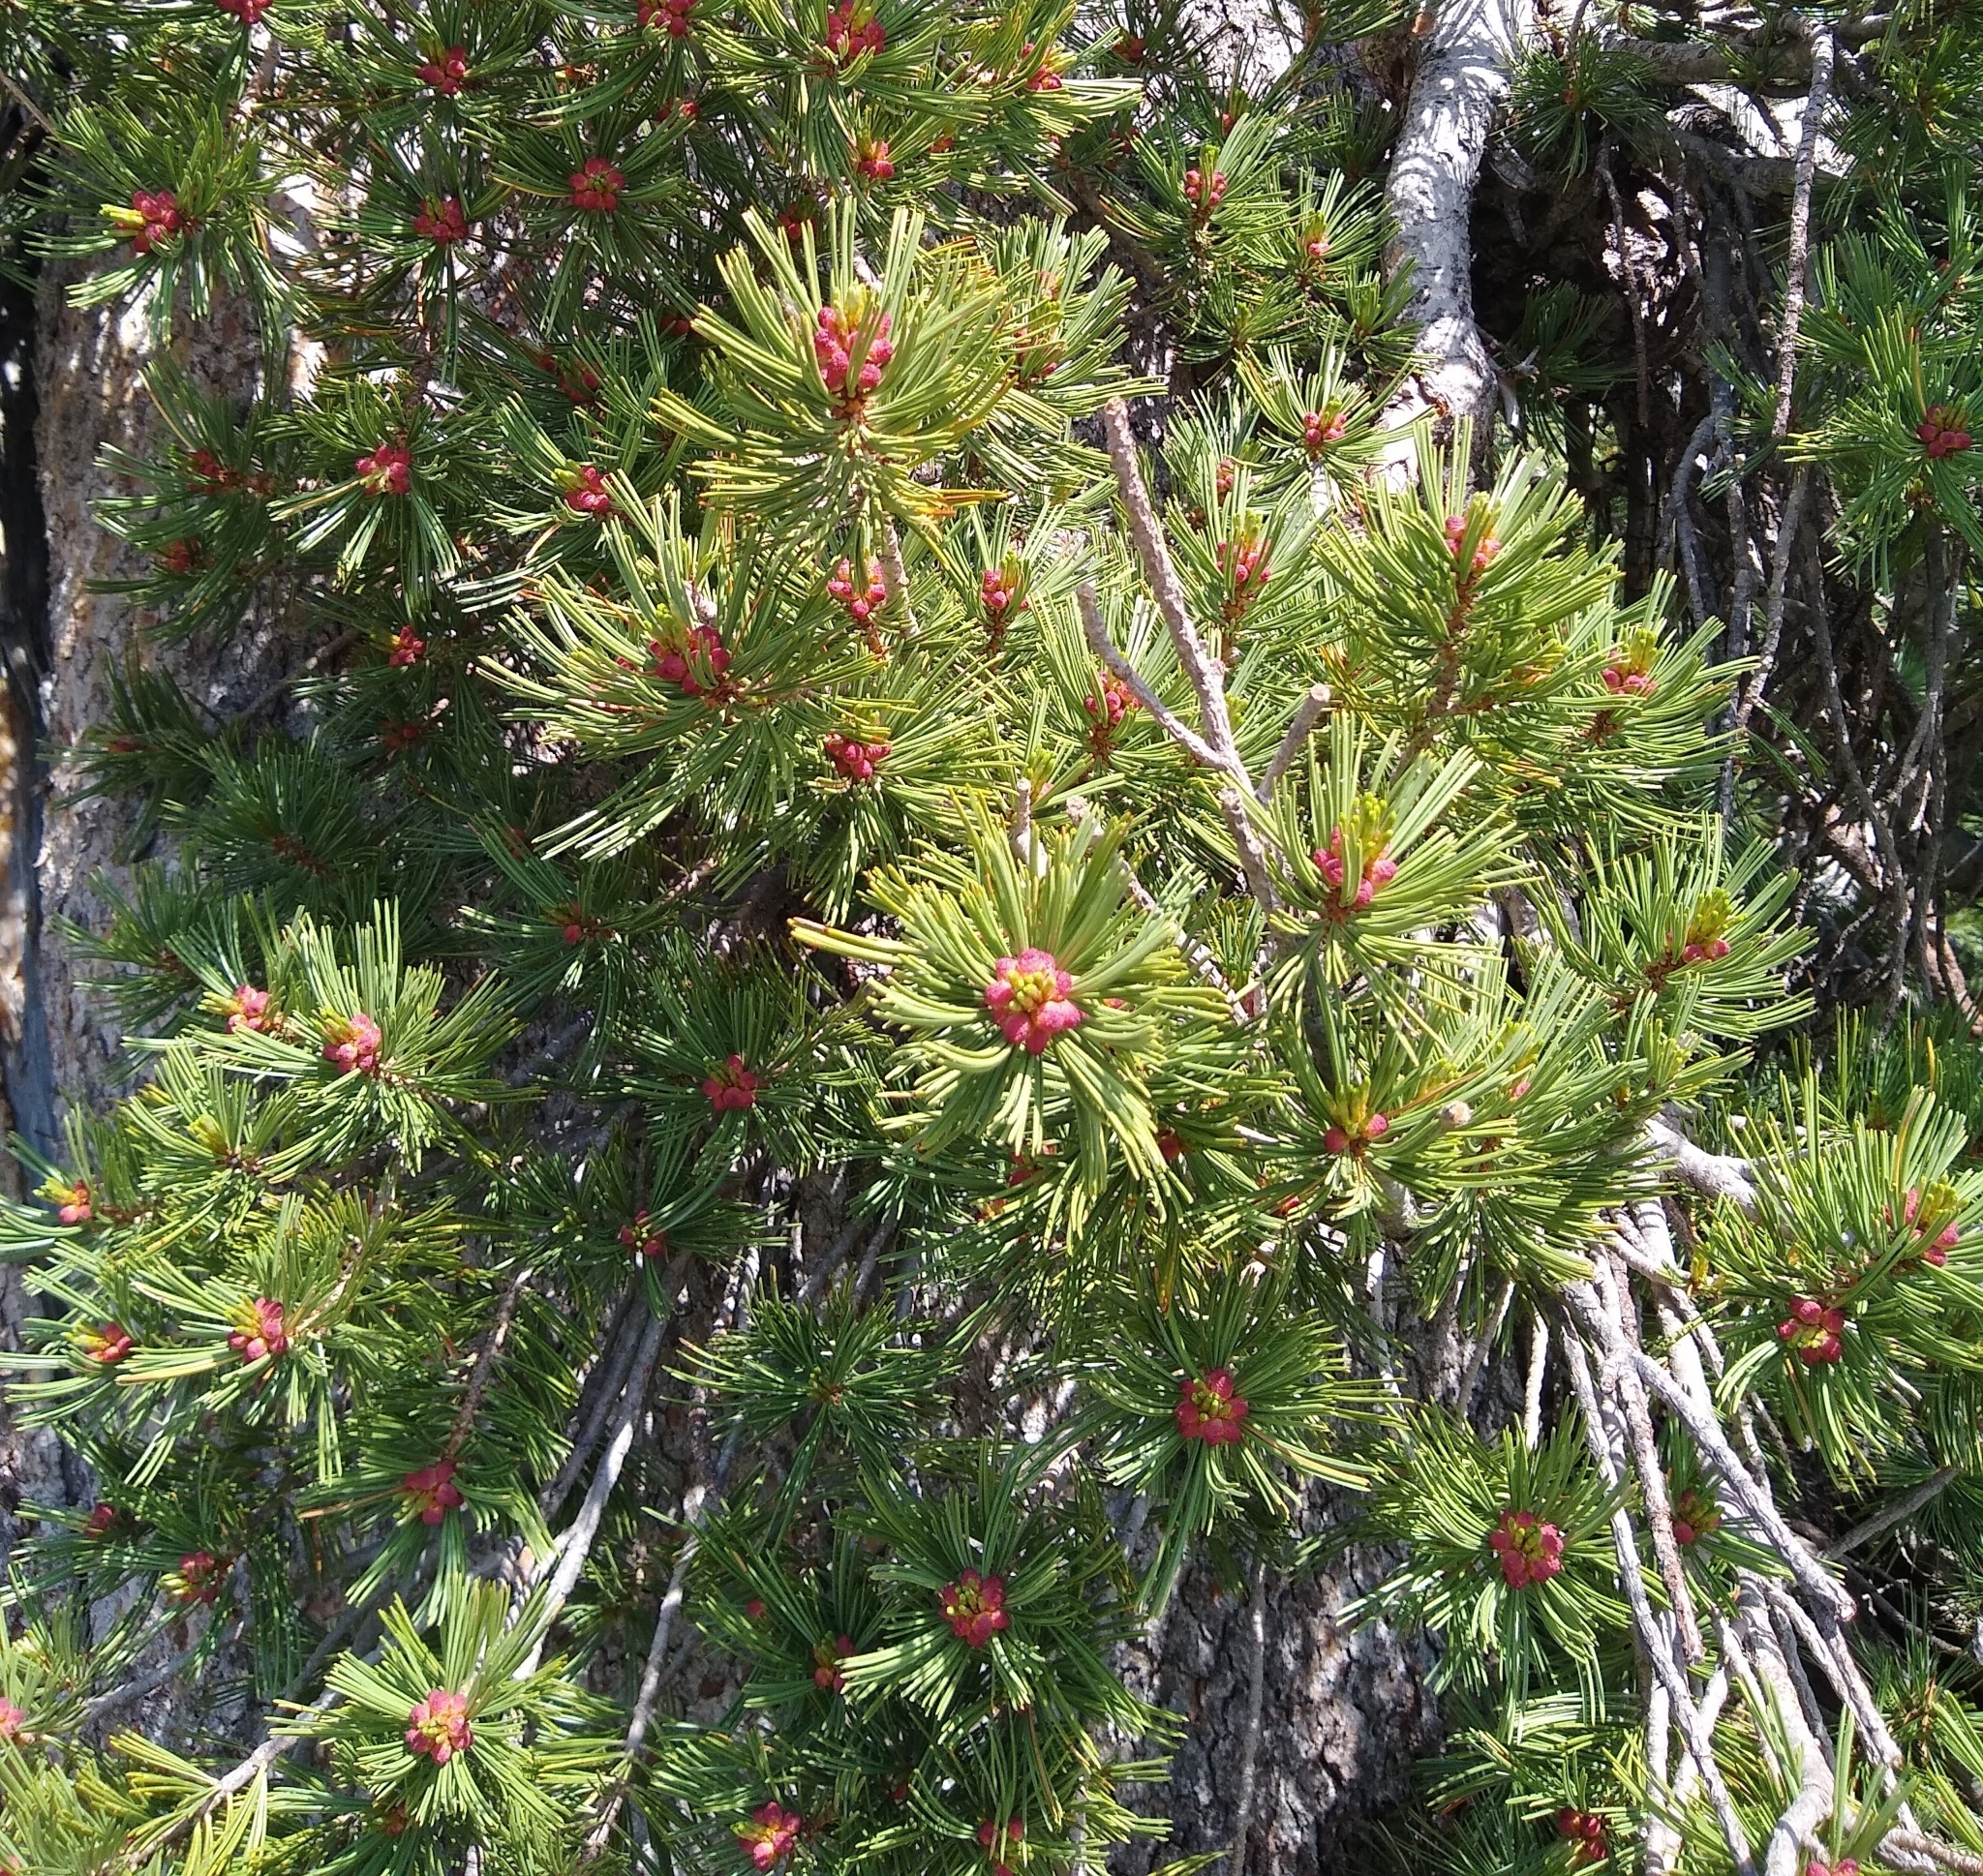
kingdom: Plantae
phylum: Tracheophyta
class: Pinopsida
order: Pinales
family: Pinaceae
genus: Pinus
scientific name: Pinus albicaulis
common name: Whitebark pine
